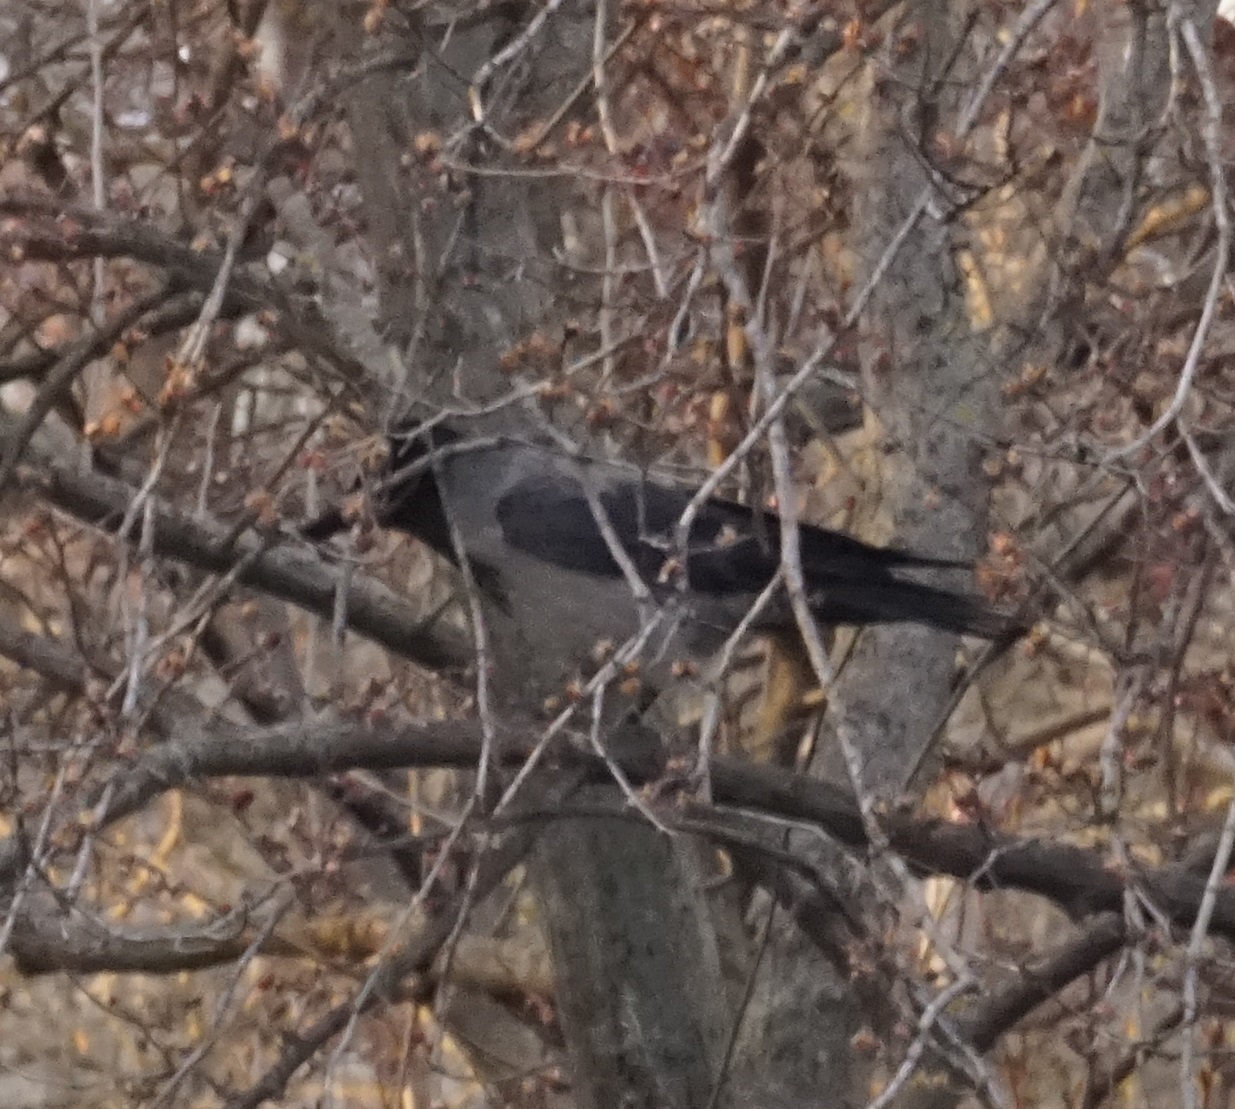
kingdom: Animalia
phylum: Chordata
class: Aves
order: Passeriformes
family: Corvidae
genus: Corvus
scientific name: Corvus cornix
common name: Hooded crow
